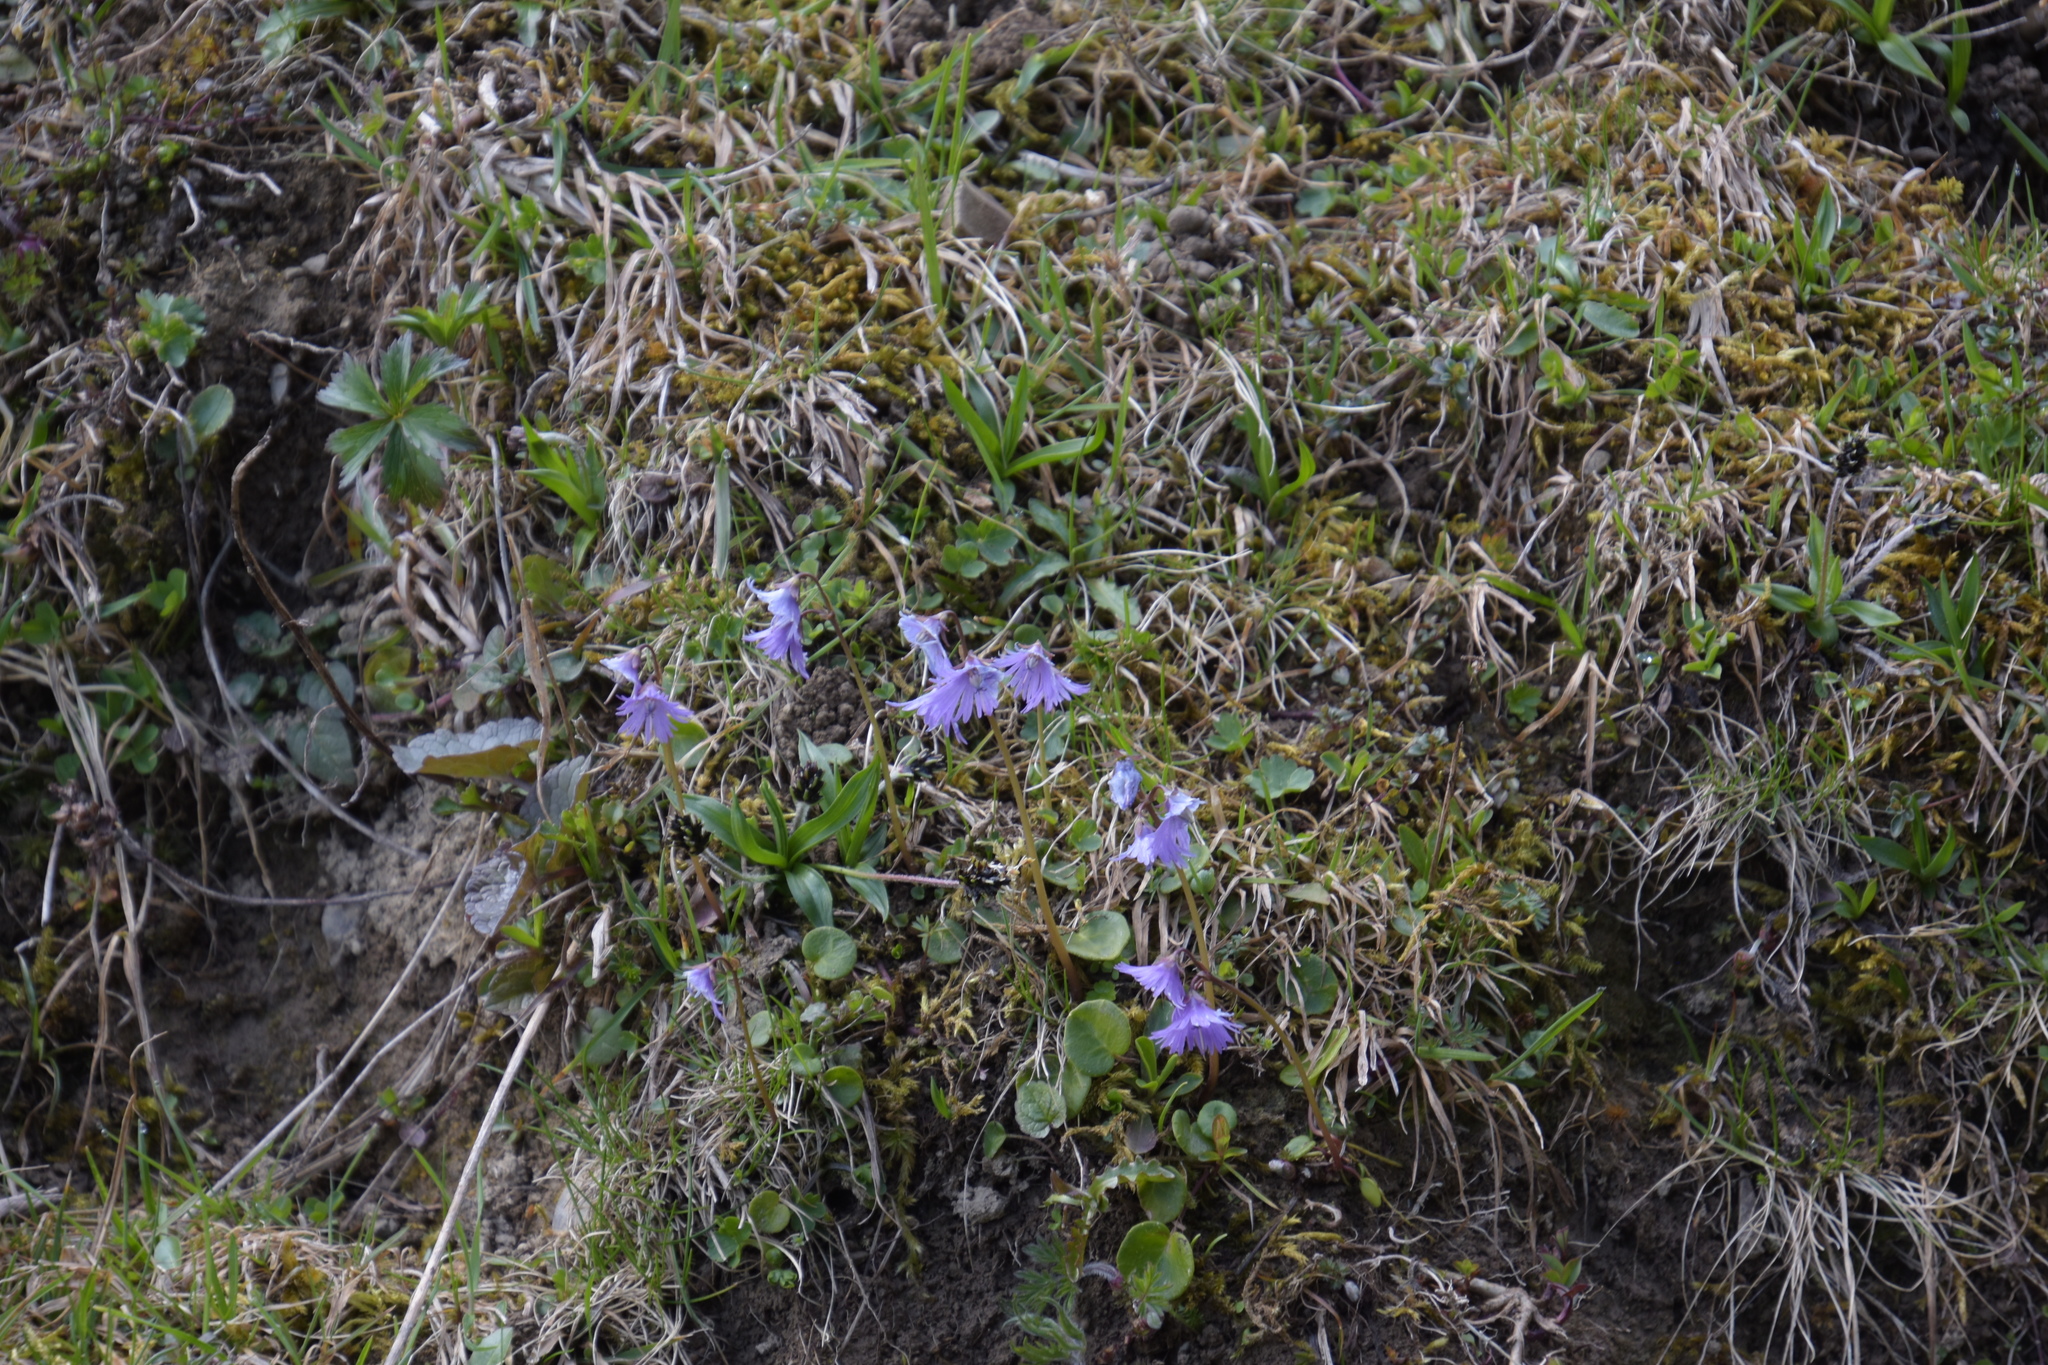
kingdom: Plantae
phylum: Tracheophyta
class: Magnoliopsida
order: Ericales
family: Primulaceae
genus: Soldanella
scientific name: Soldanella alpina
